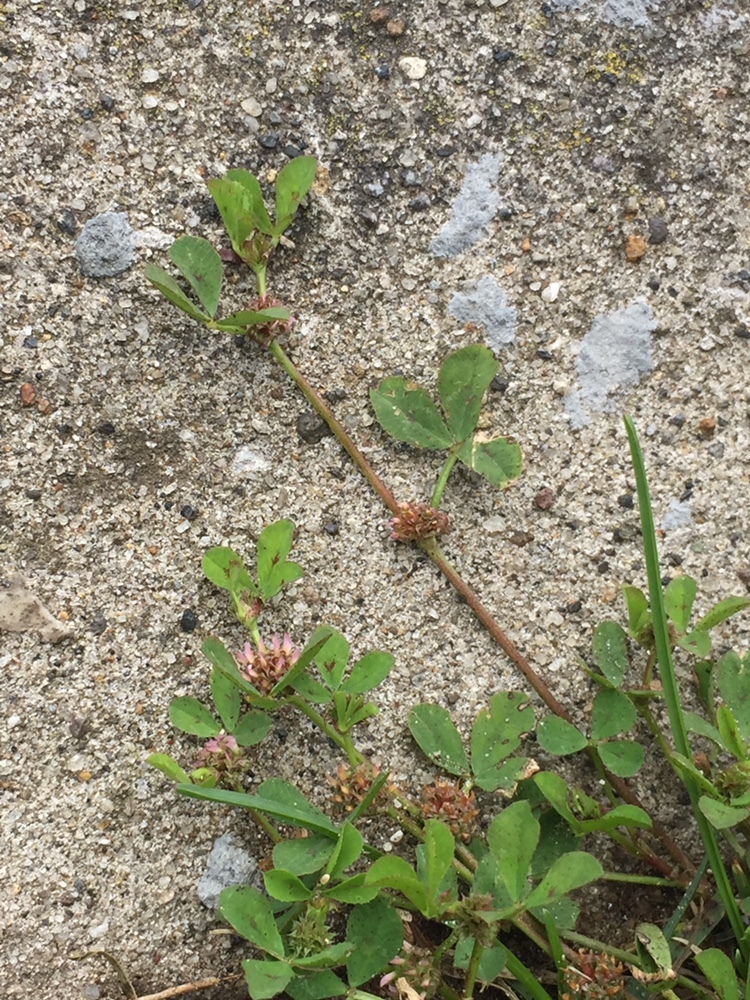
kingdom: Plantae
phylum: Tracheophyta
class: Magnoliopsida
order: Fabales
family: Fabaceae
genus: Trifolium
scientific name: Trifolium glomeratum
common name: Clustered clover
